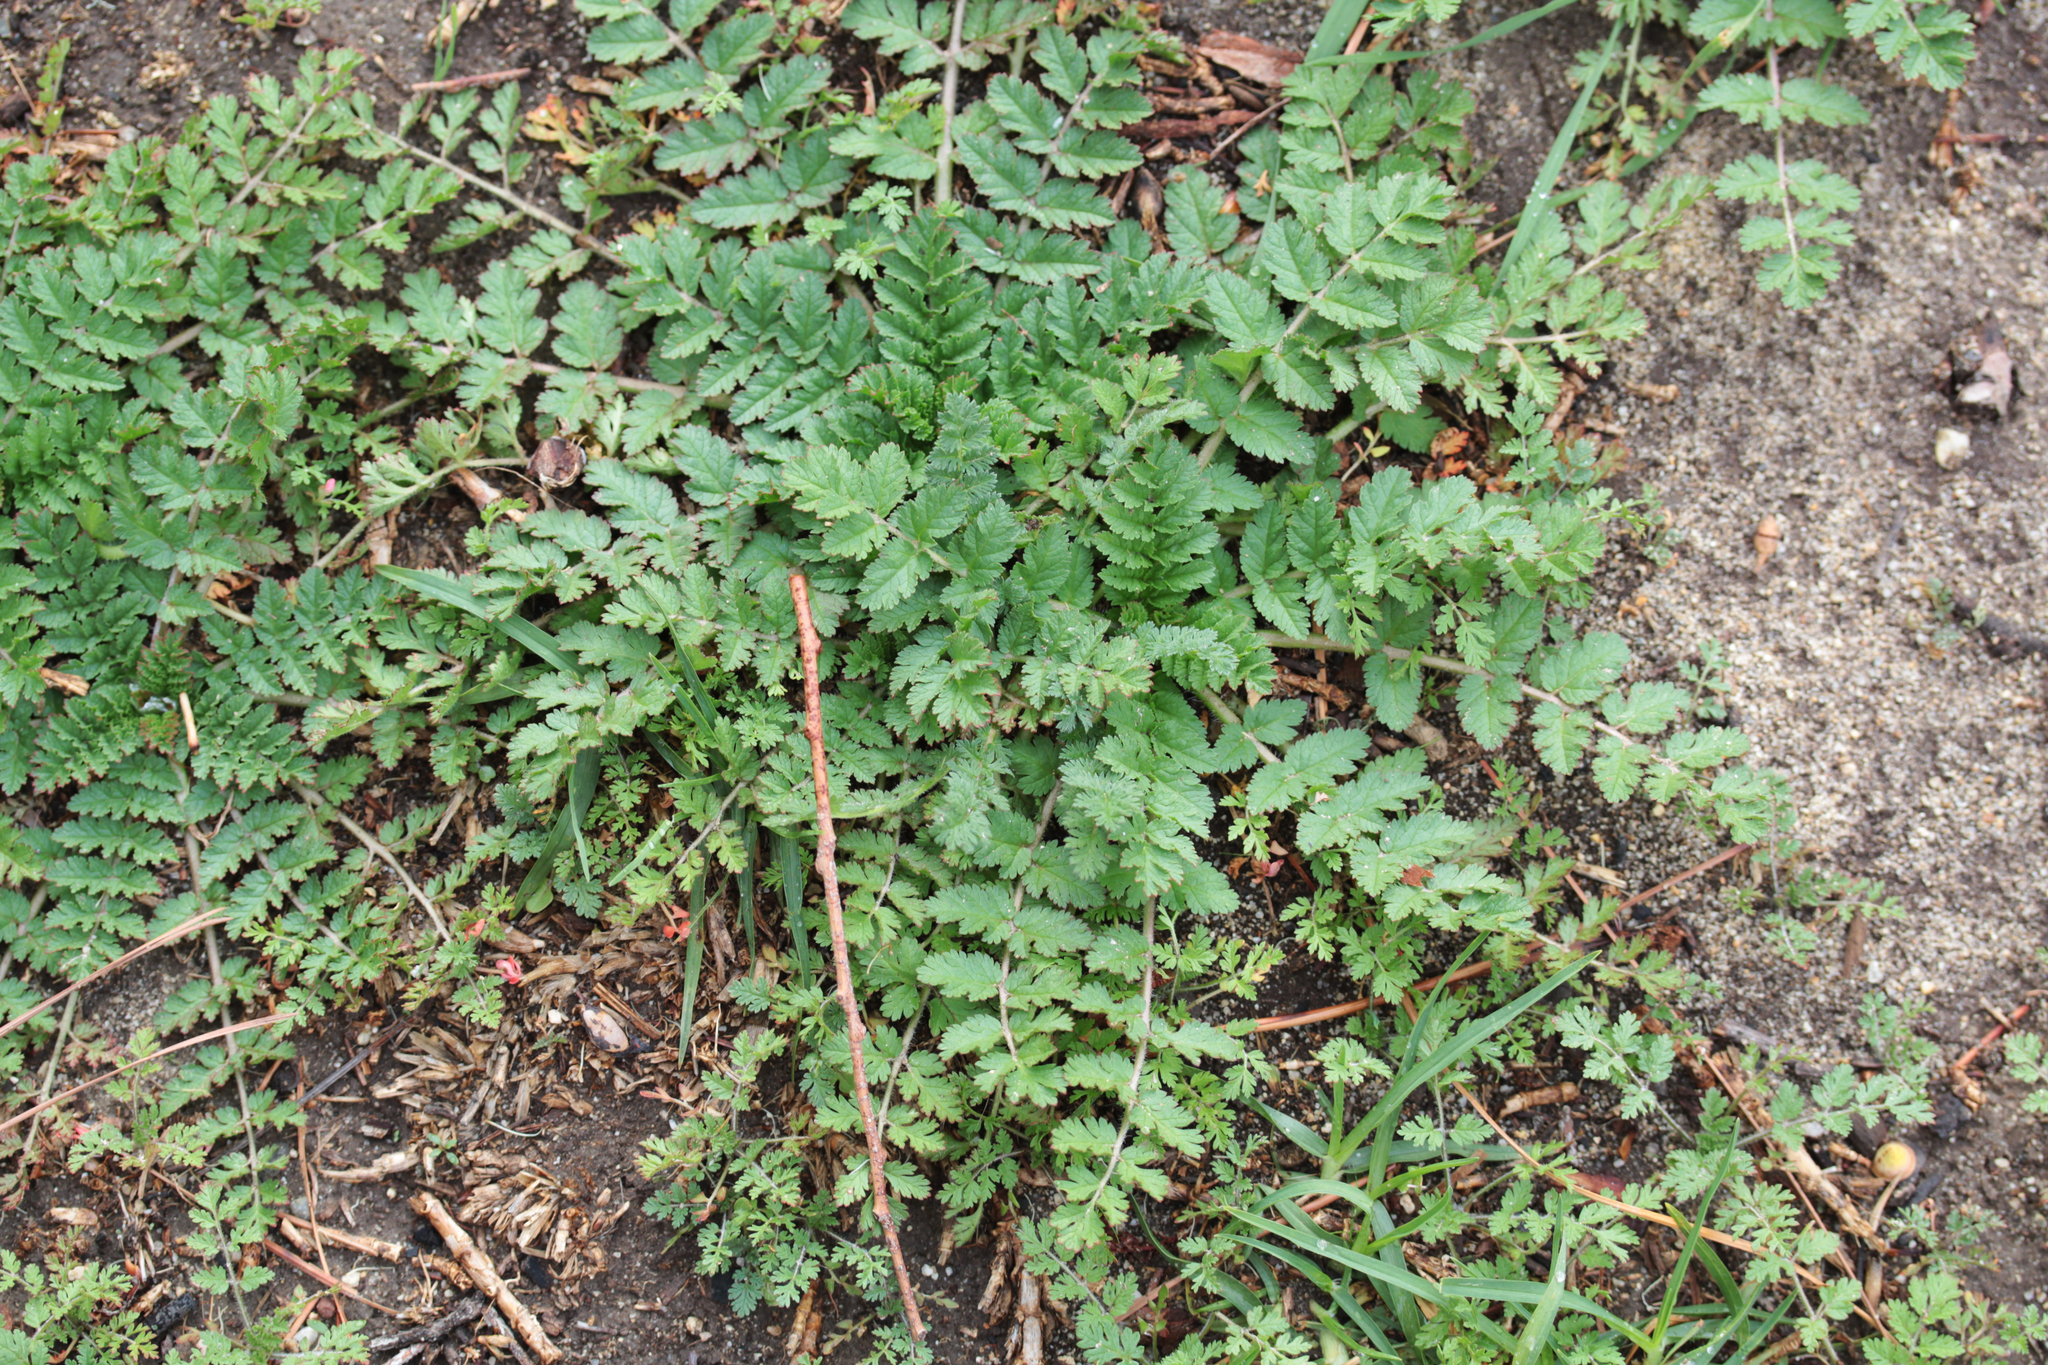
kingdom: Plantae
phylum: Tracheophyta
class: Magnoliopsida
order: Geraniales
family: Geraniaceae
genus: Erodium
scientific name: Erodium moschatum
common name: Musk stork's-bill
